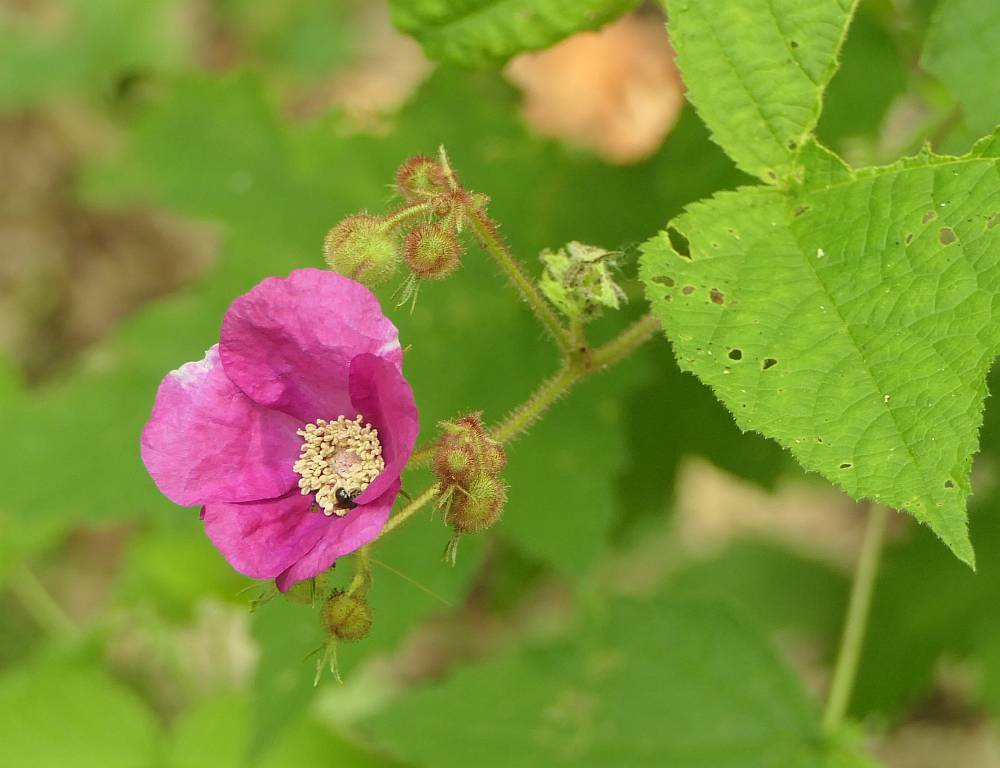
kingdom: Plantae
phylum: Tracheophyta
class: Magnoliopsida
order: Rosales
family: Rosaceae
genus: Rubus
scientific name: Rubus odoratus
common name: Purple-flowered raspberry
